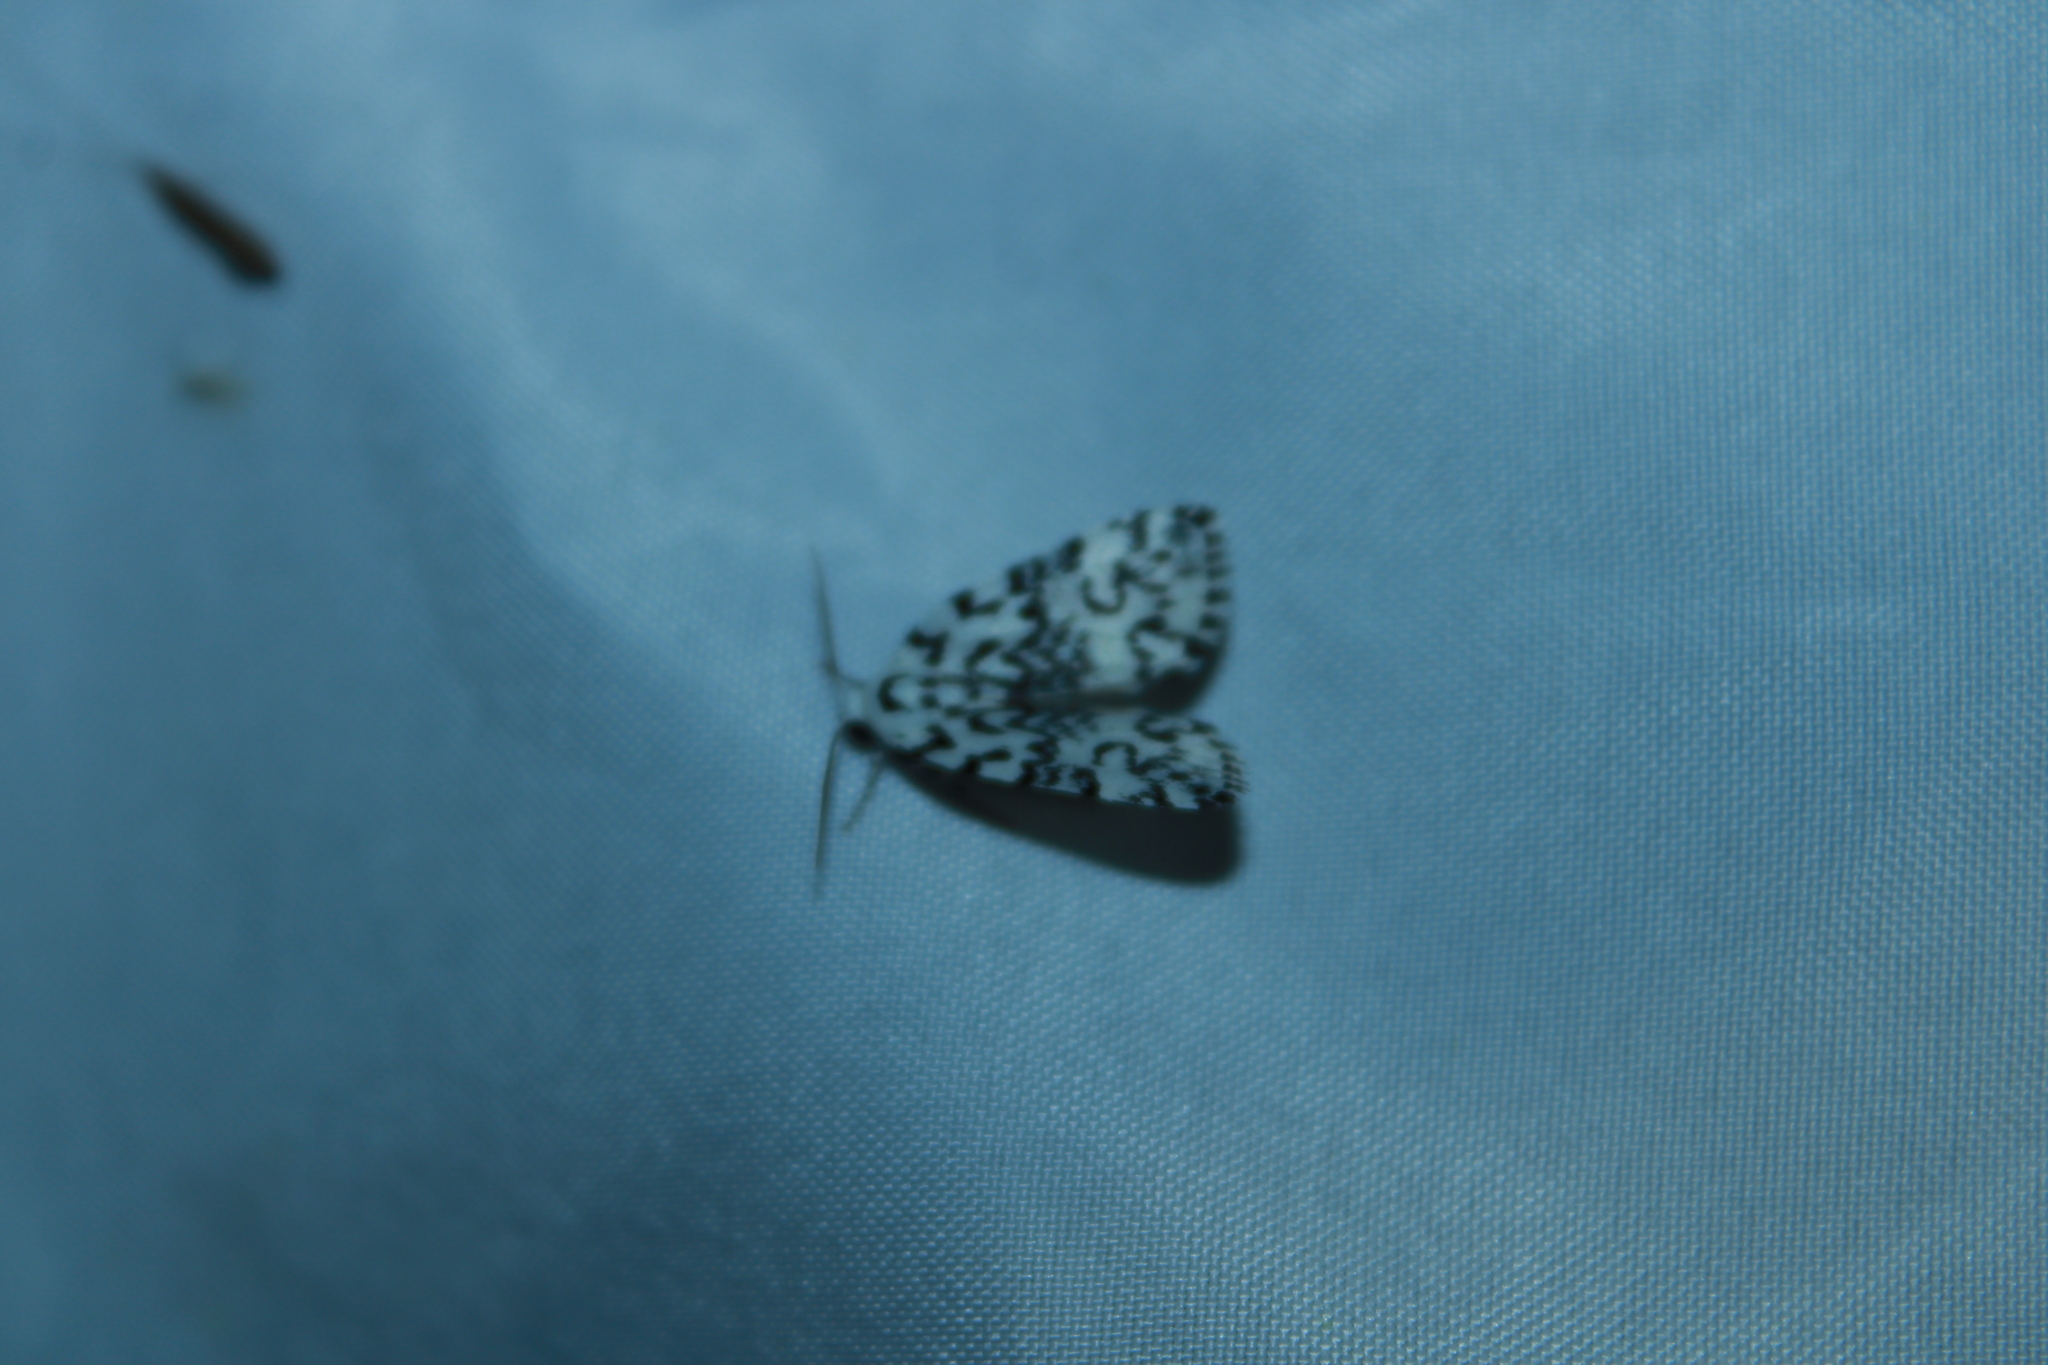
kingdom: Animalia
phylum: Arthropoda
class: Insecta
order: Lepidoptera
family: Noctuidae
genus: Polygrammate
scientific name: Polygrammate hebraeicum
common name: Hebrew moth
